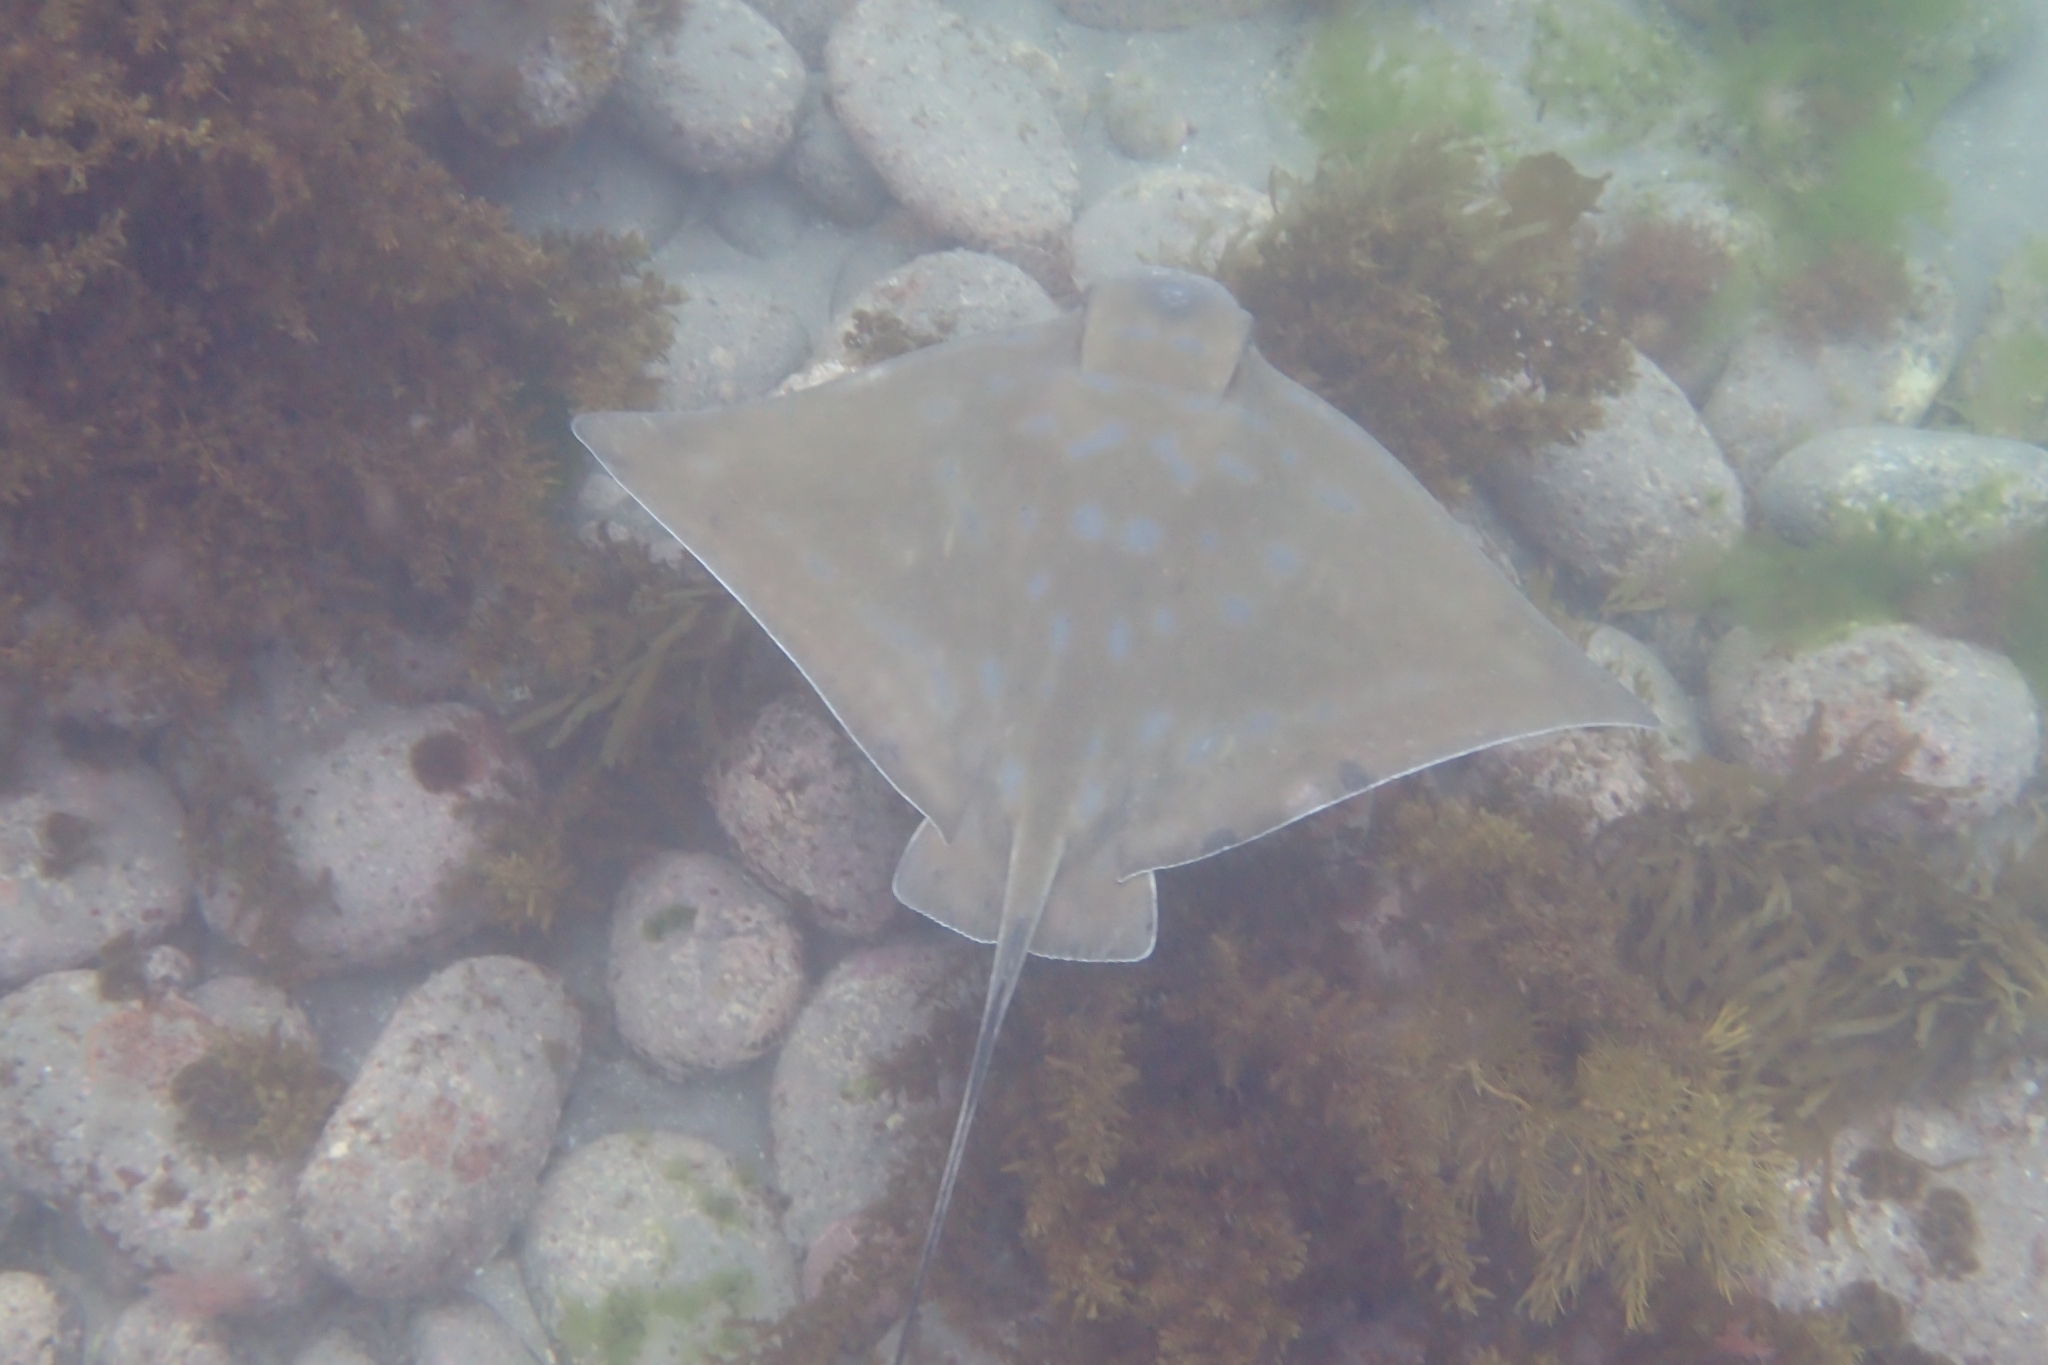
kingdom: Animalia
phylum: Chordata
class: Elasmobranchii
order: Myliobatiformes
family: Myliobatidae
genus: Myliobatis
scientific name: Myliobatis tenuicaudatus
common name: Eagle ray
